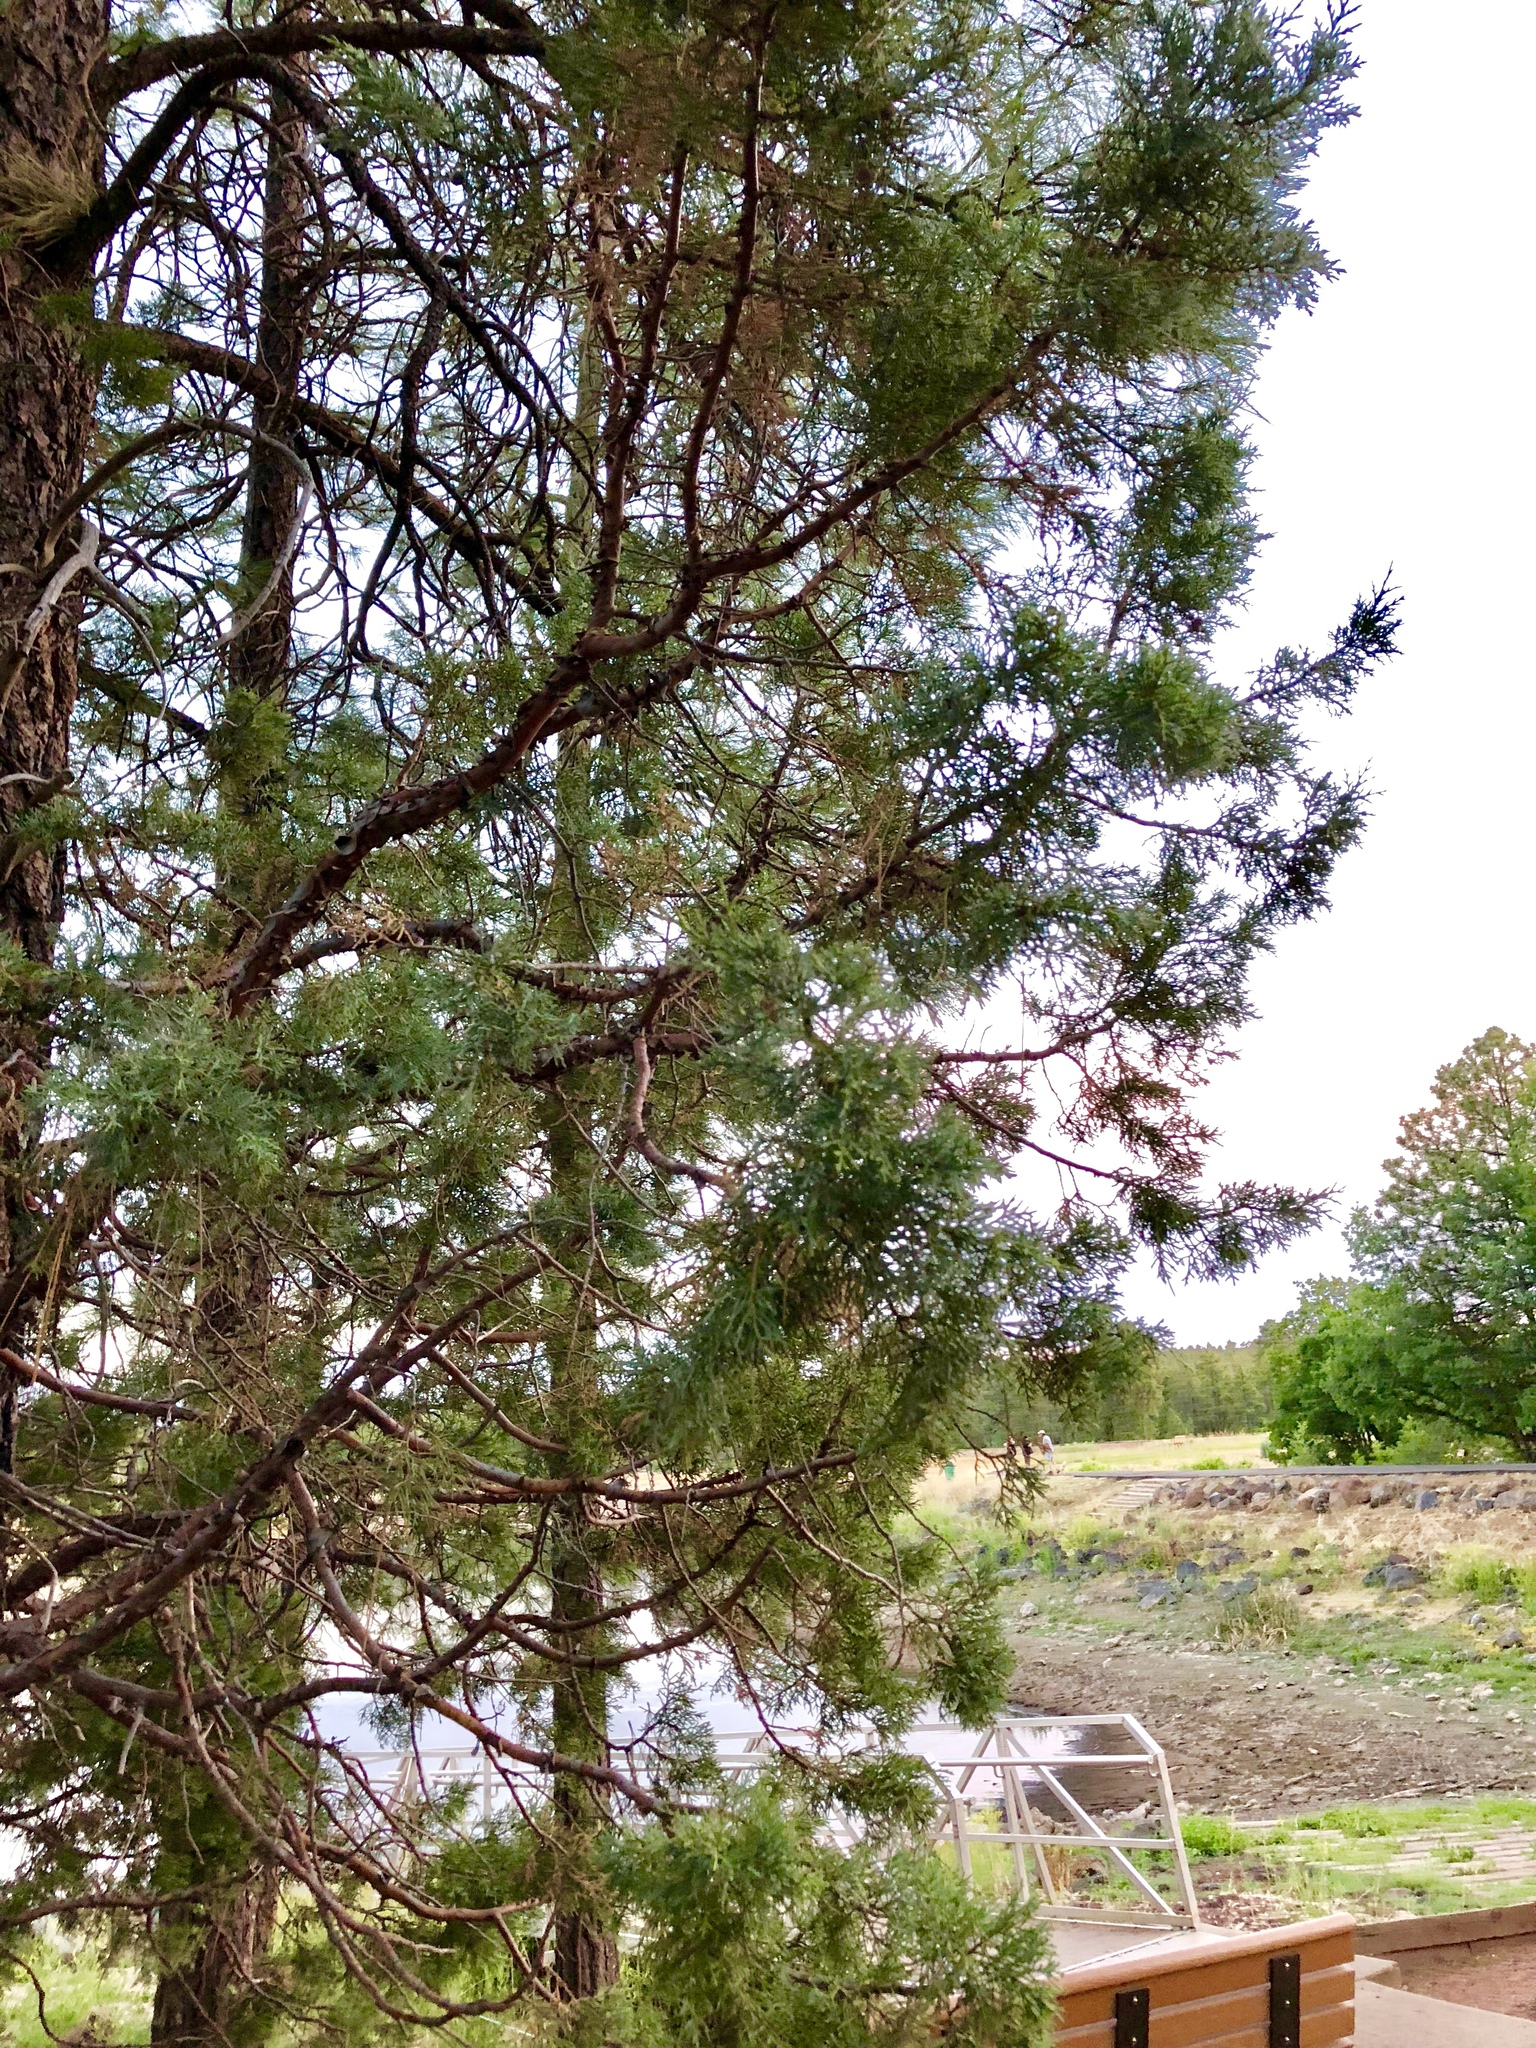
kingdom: Plantae
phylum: Tracheophyta
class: Pinopsida
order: Pinales
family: Cupressaceae
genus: Juniperus
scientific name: Juniperus deppeana
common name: Alligator juniper
